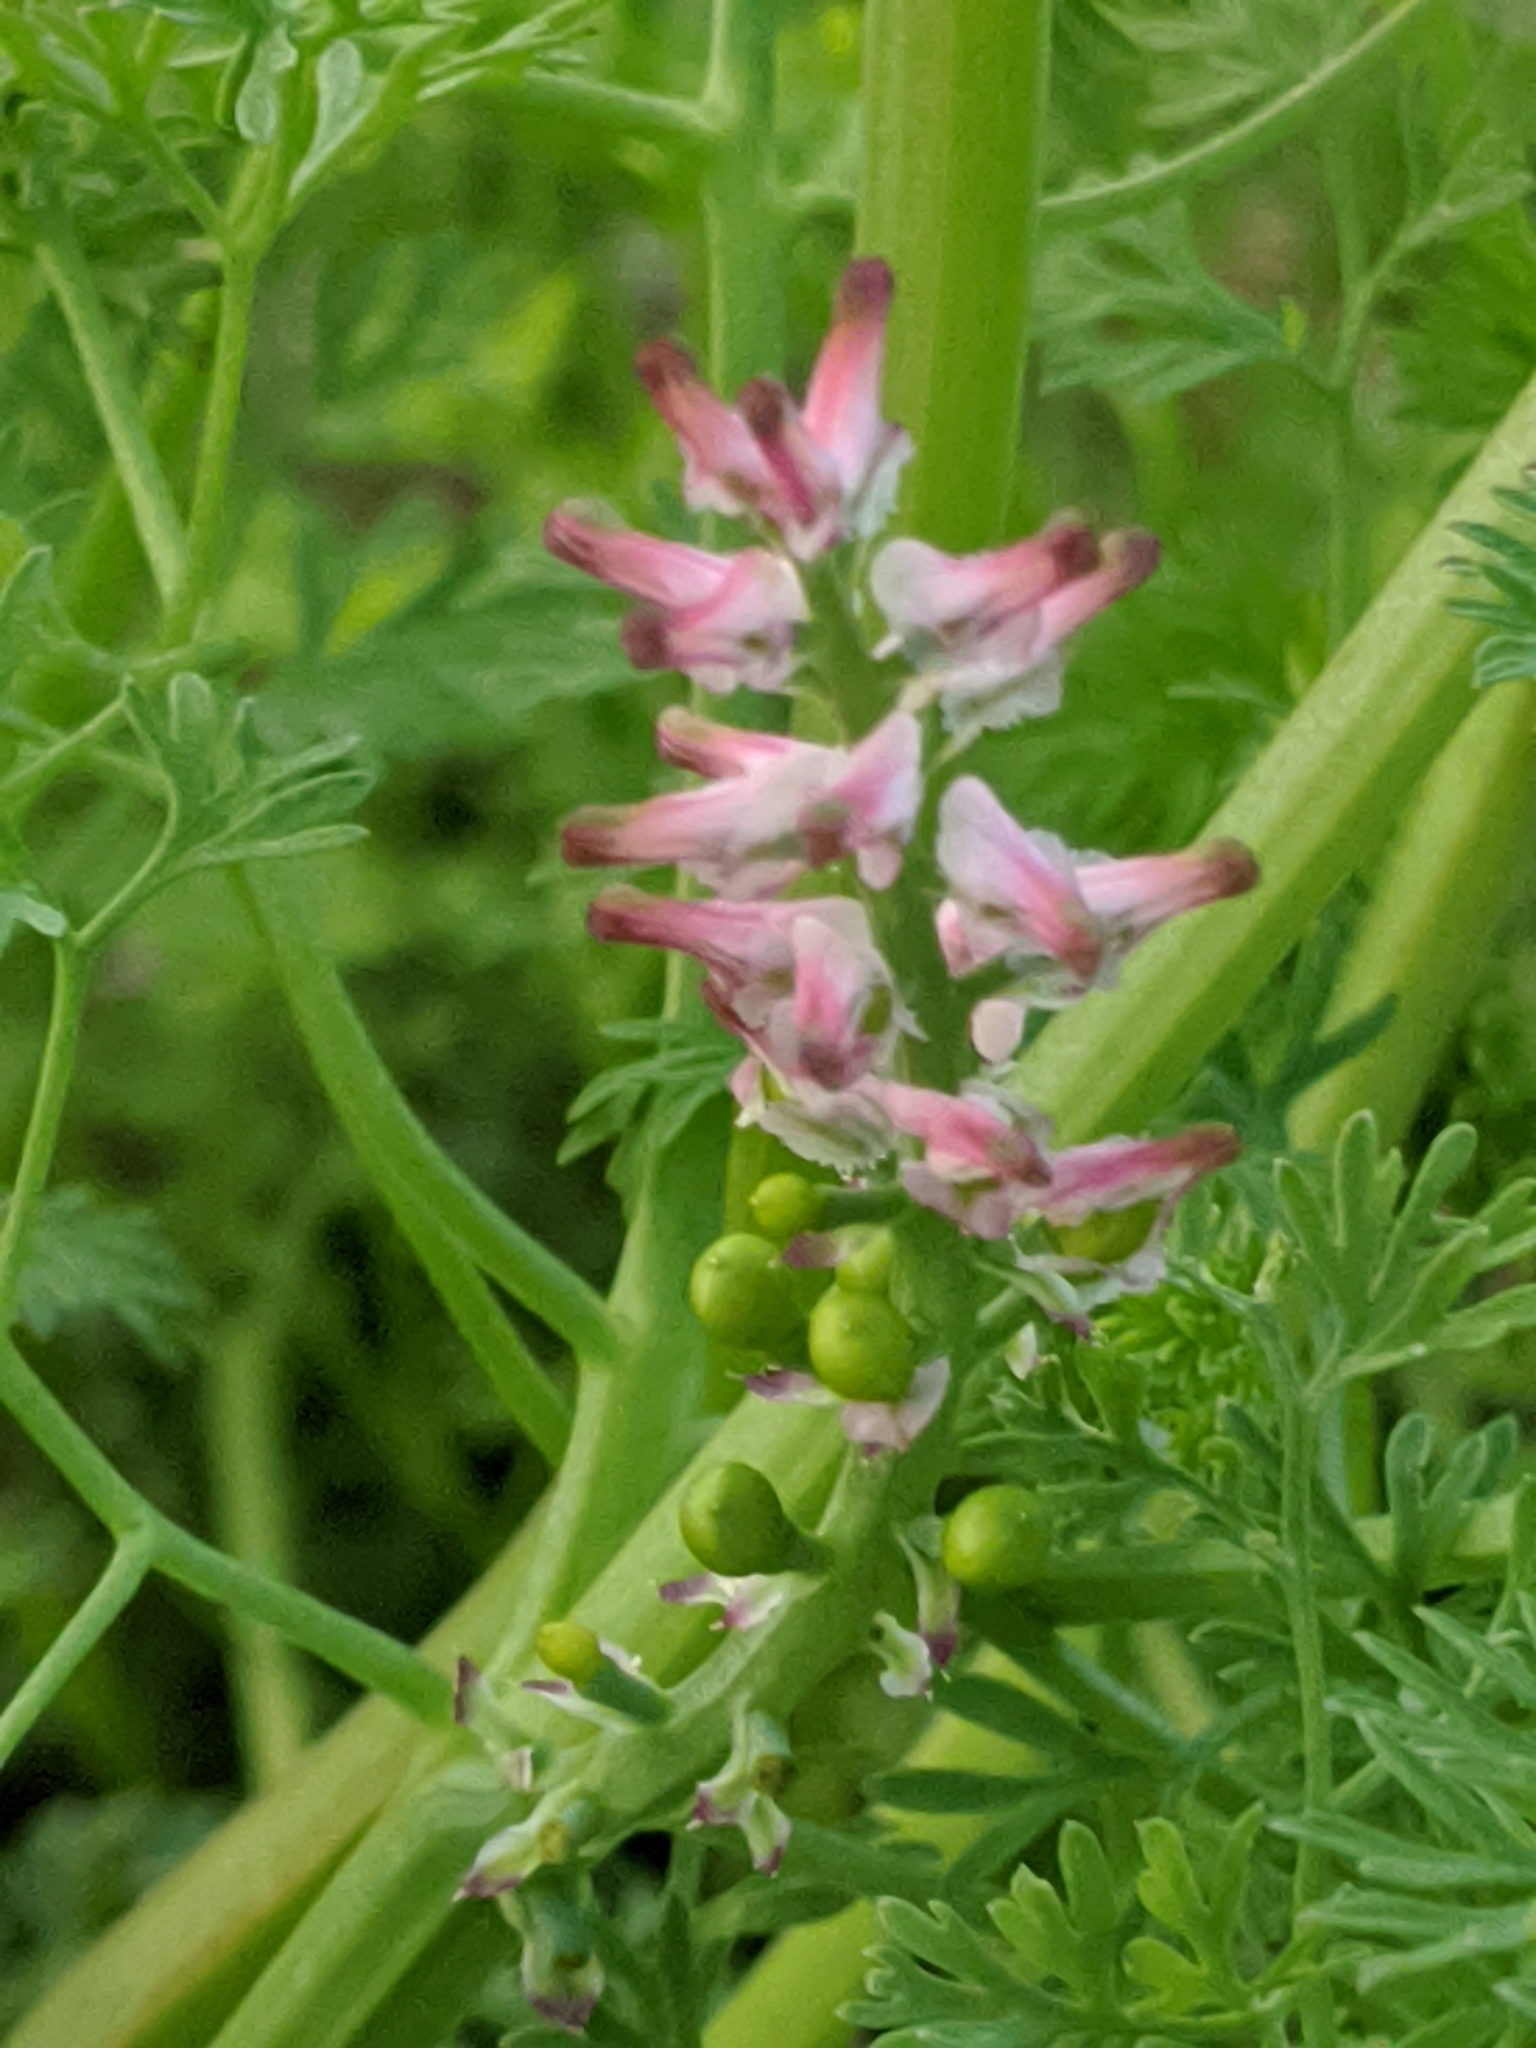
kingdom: Plantae
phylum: Tracheophyta
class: Magnoliopsida
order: Ranunculales
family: Papaveraceae
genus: Fumaria
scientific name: Fumaria densiflora
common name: Dense-flowered fumitory
